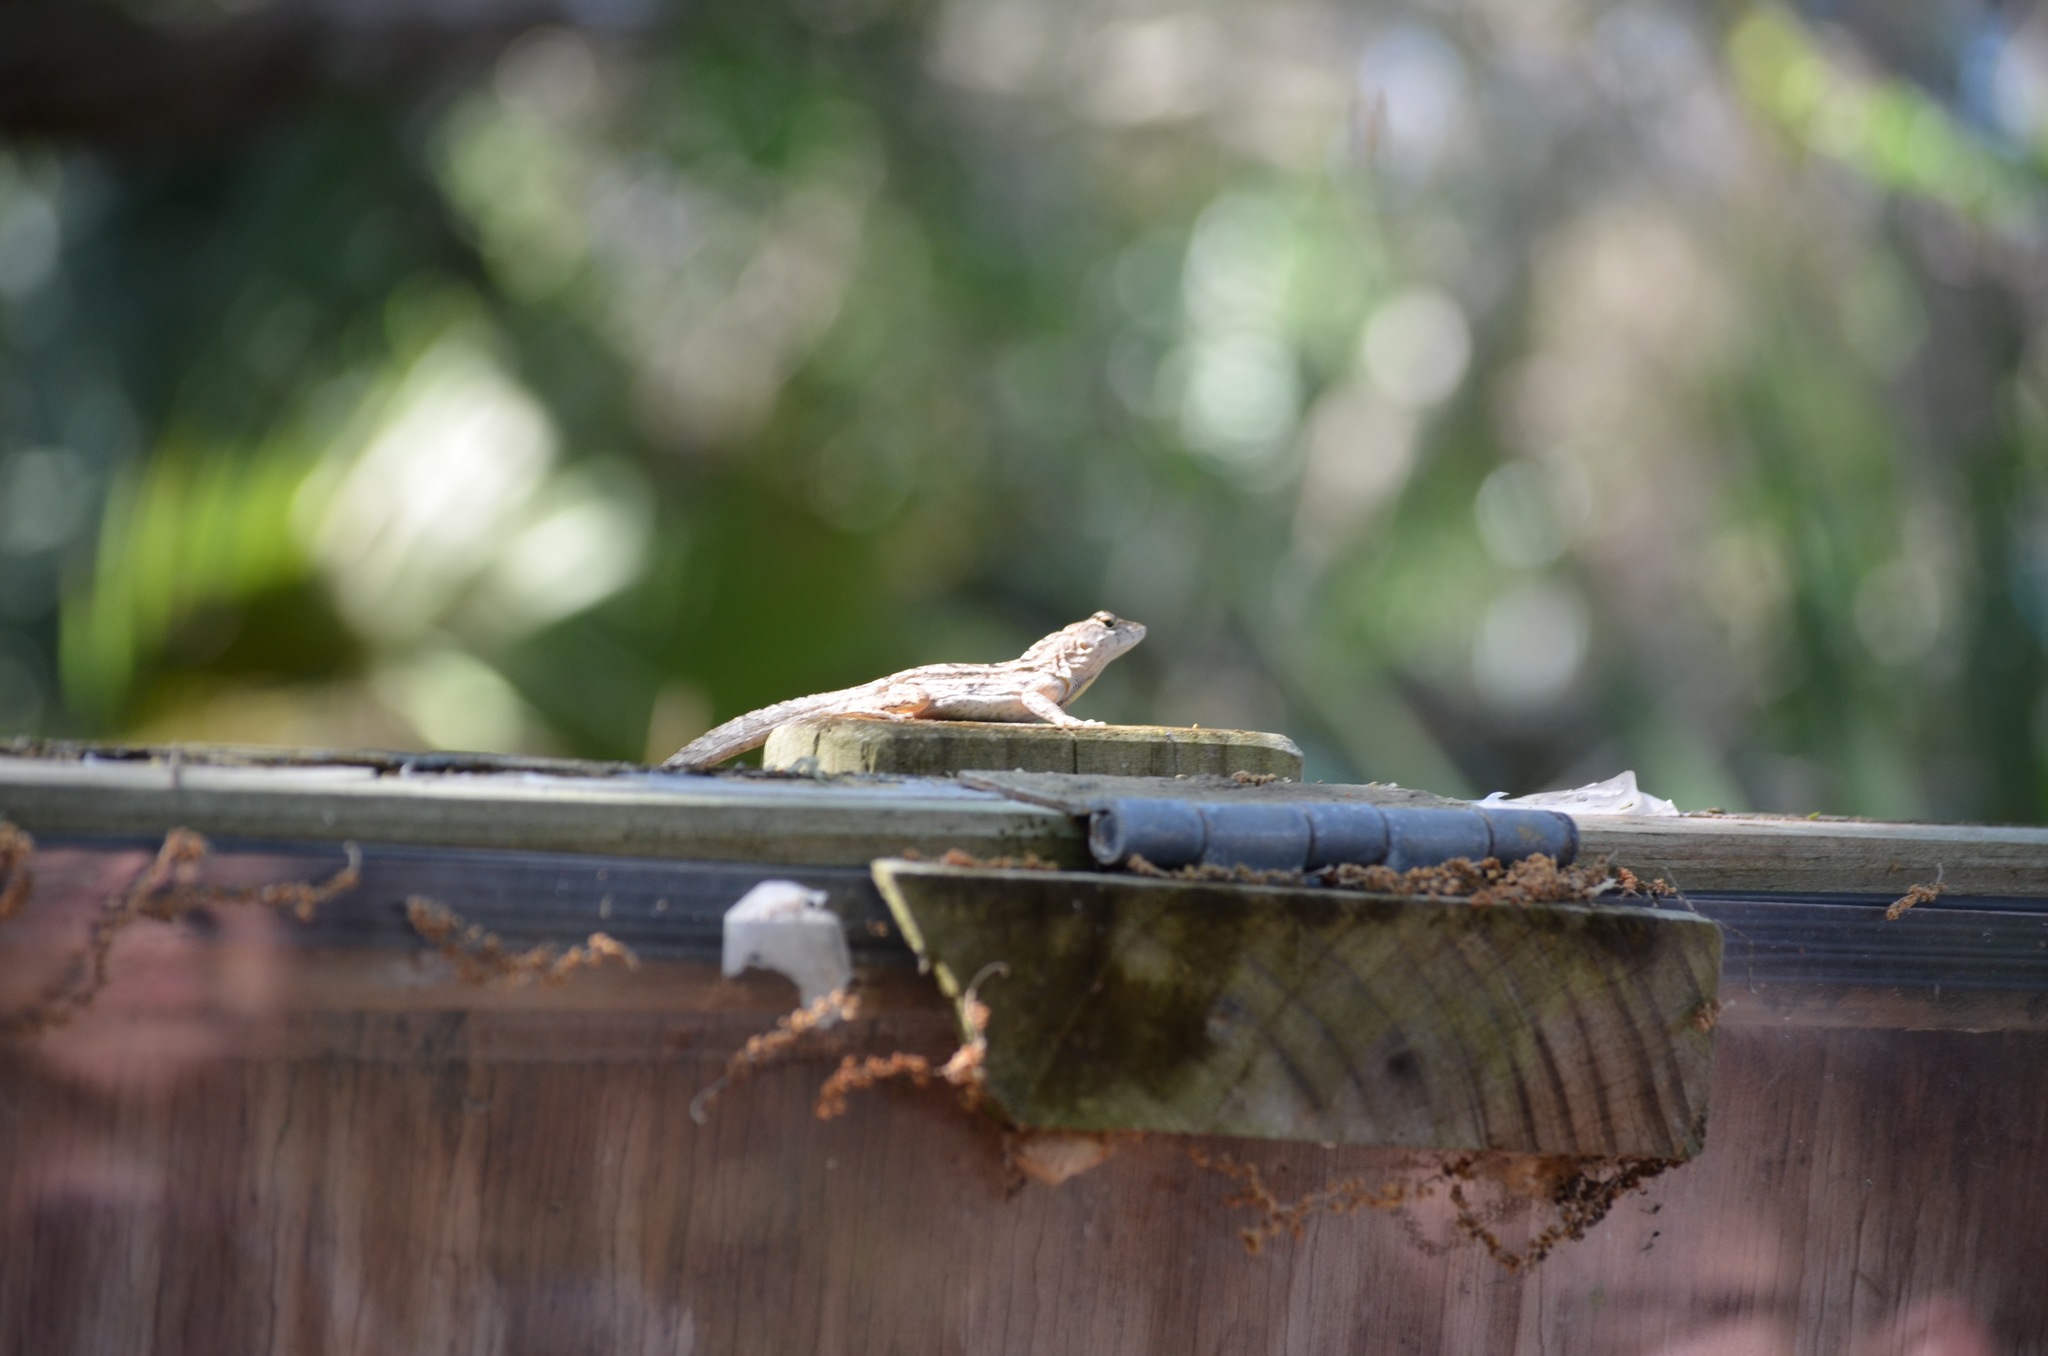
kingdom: Animalia
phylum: Chordata
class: Squamata
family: Dactyloidae
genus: Anolis
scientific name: Anolis sagrei
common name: Brown anole
